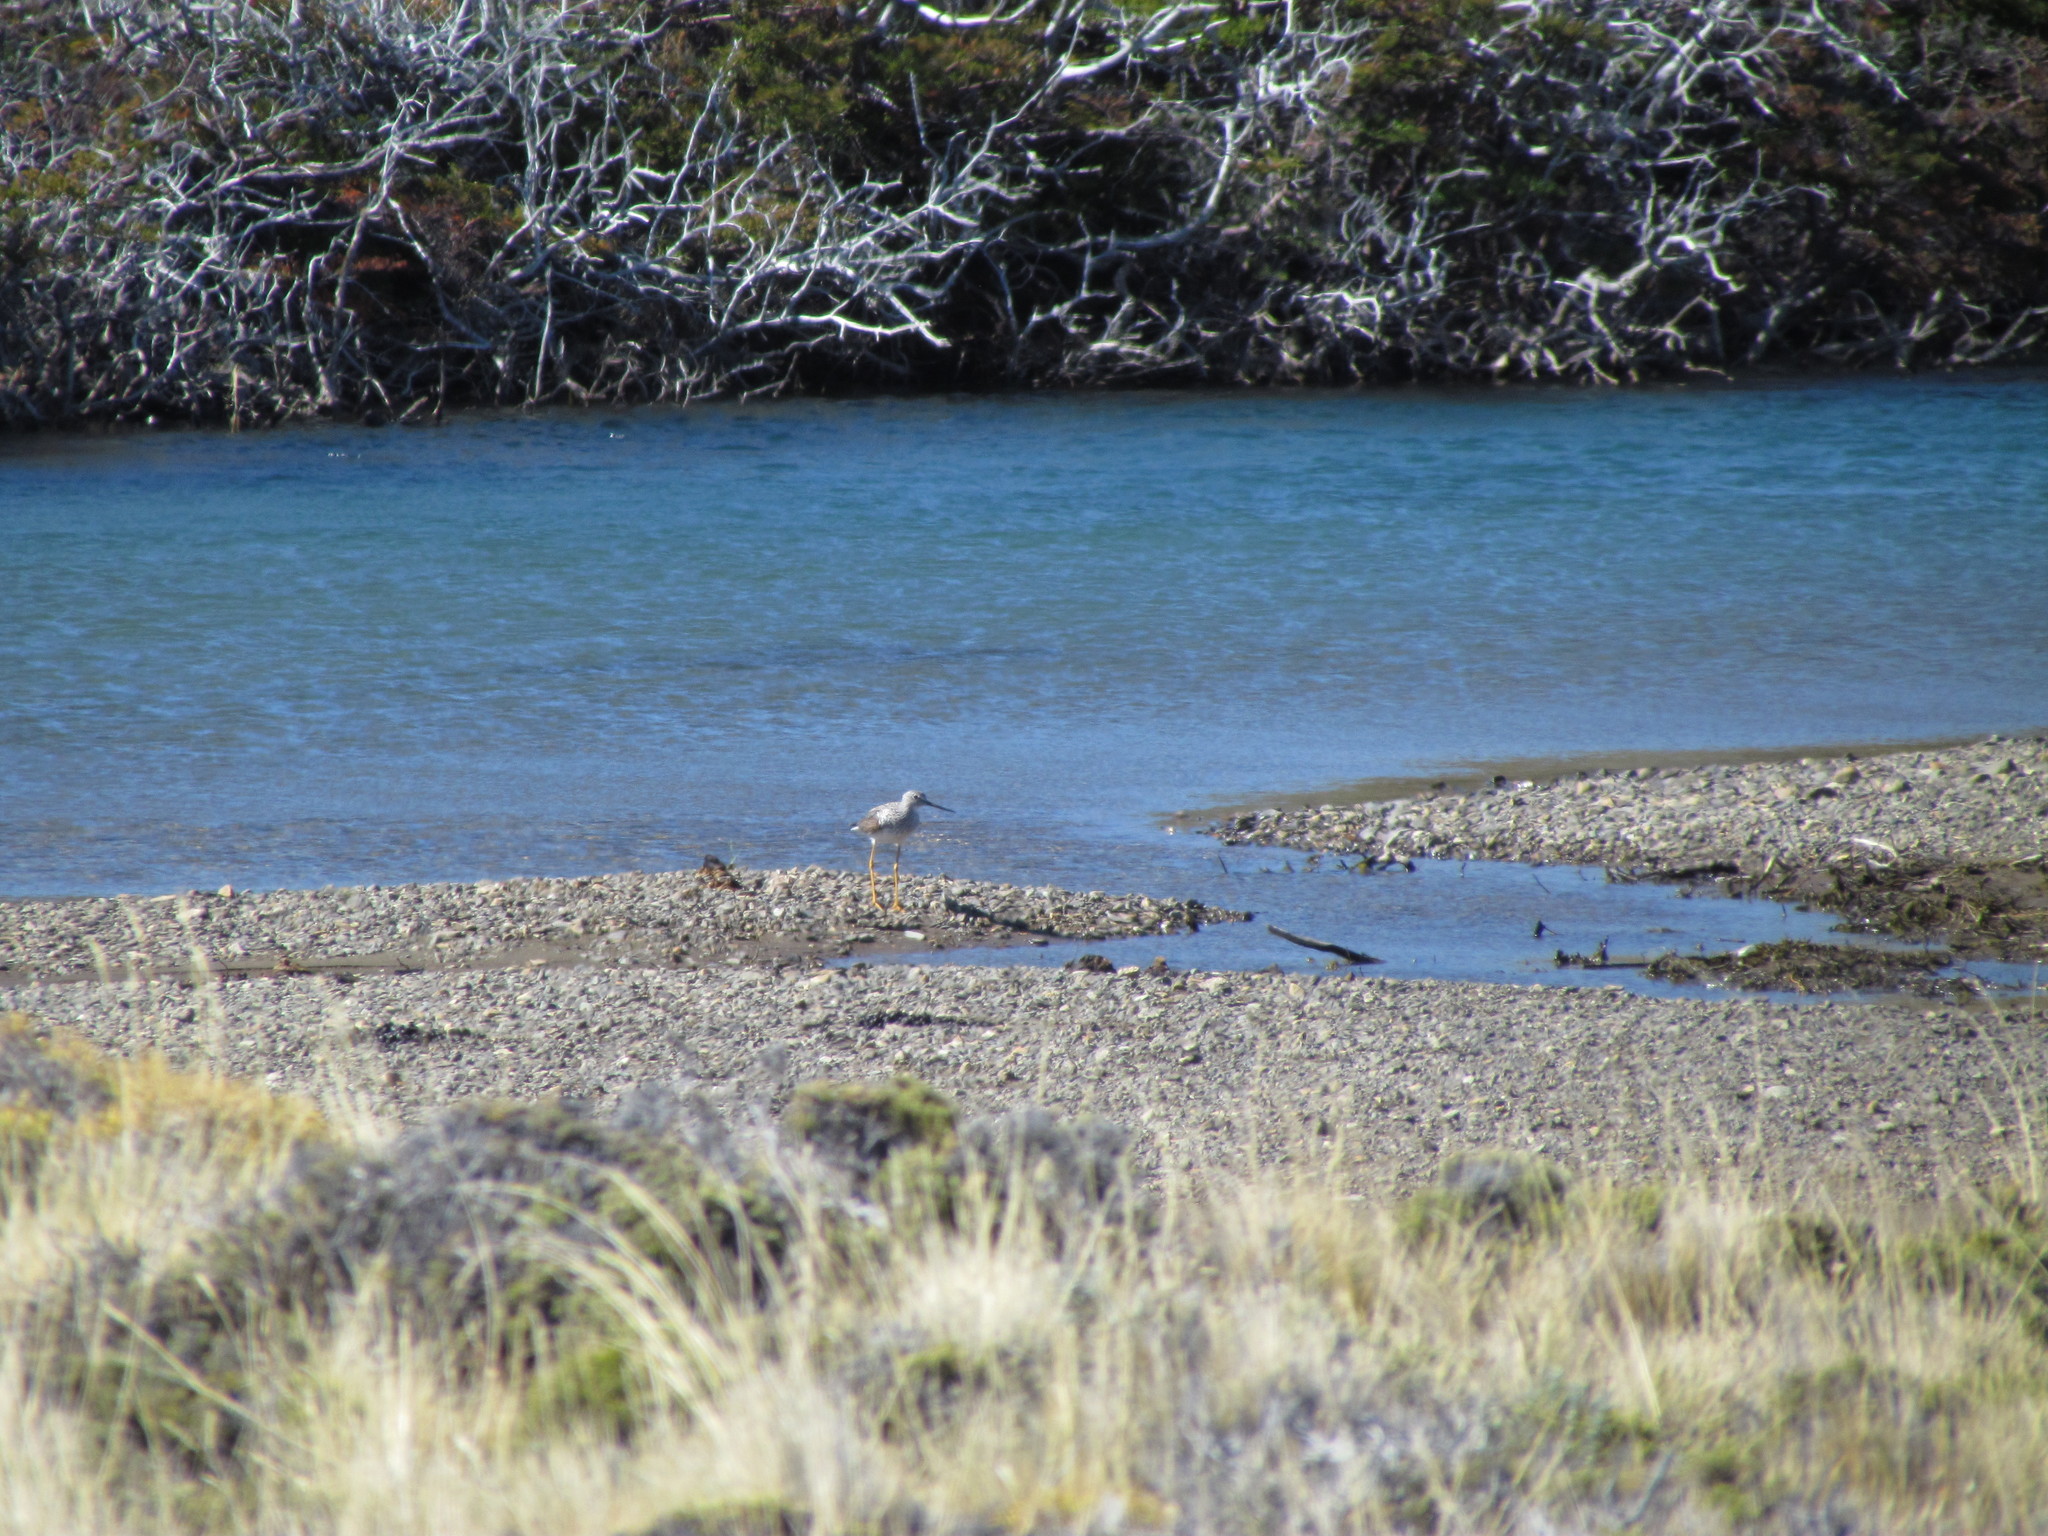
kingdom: Animalia
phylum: Chordata
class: Aves
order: Charadriiformes
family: Scolopacidae
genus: Tringa
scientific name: Tringa melanoleuca
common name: Greater yellowlegs
